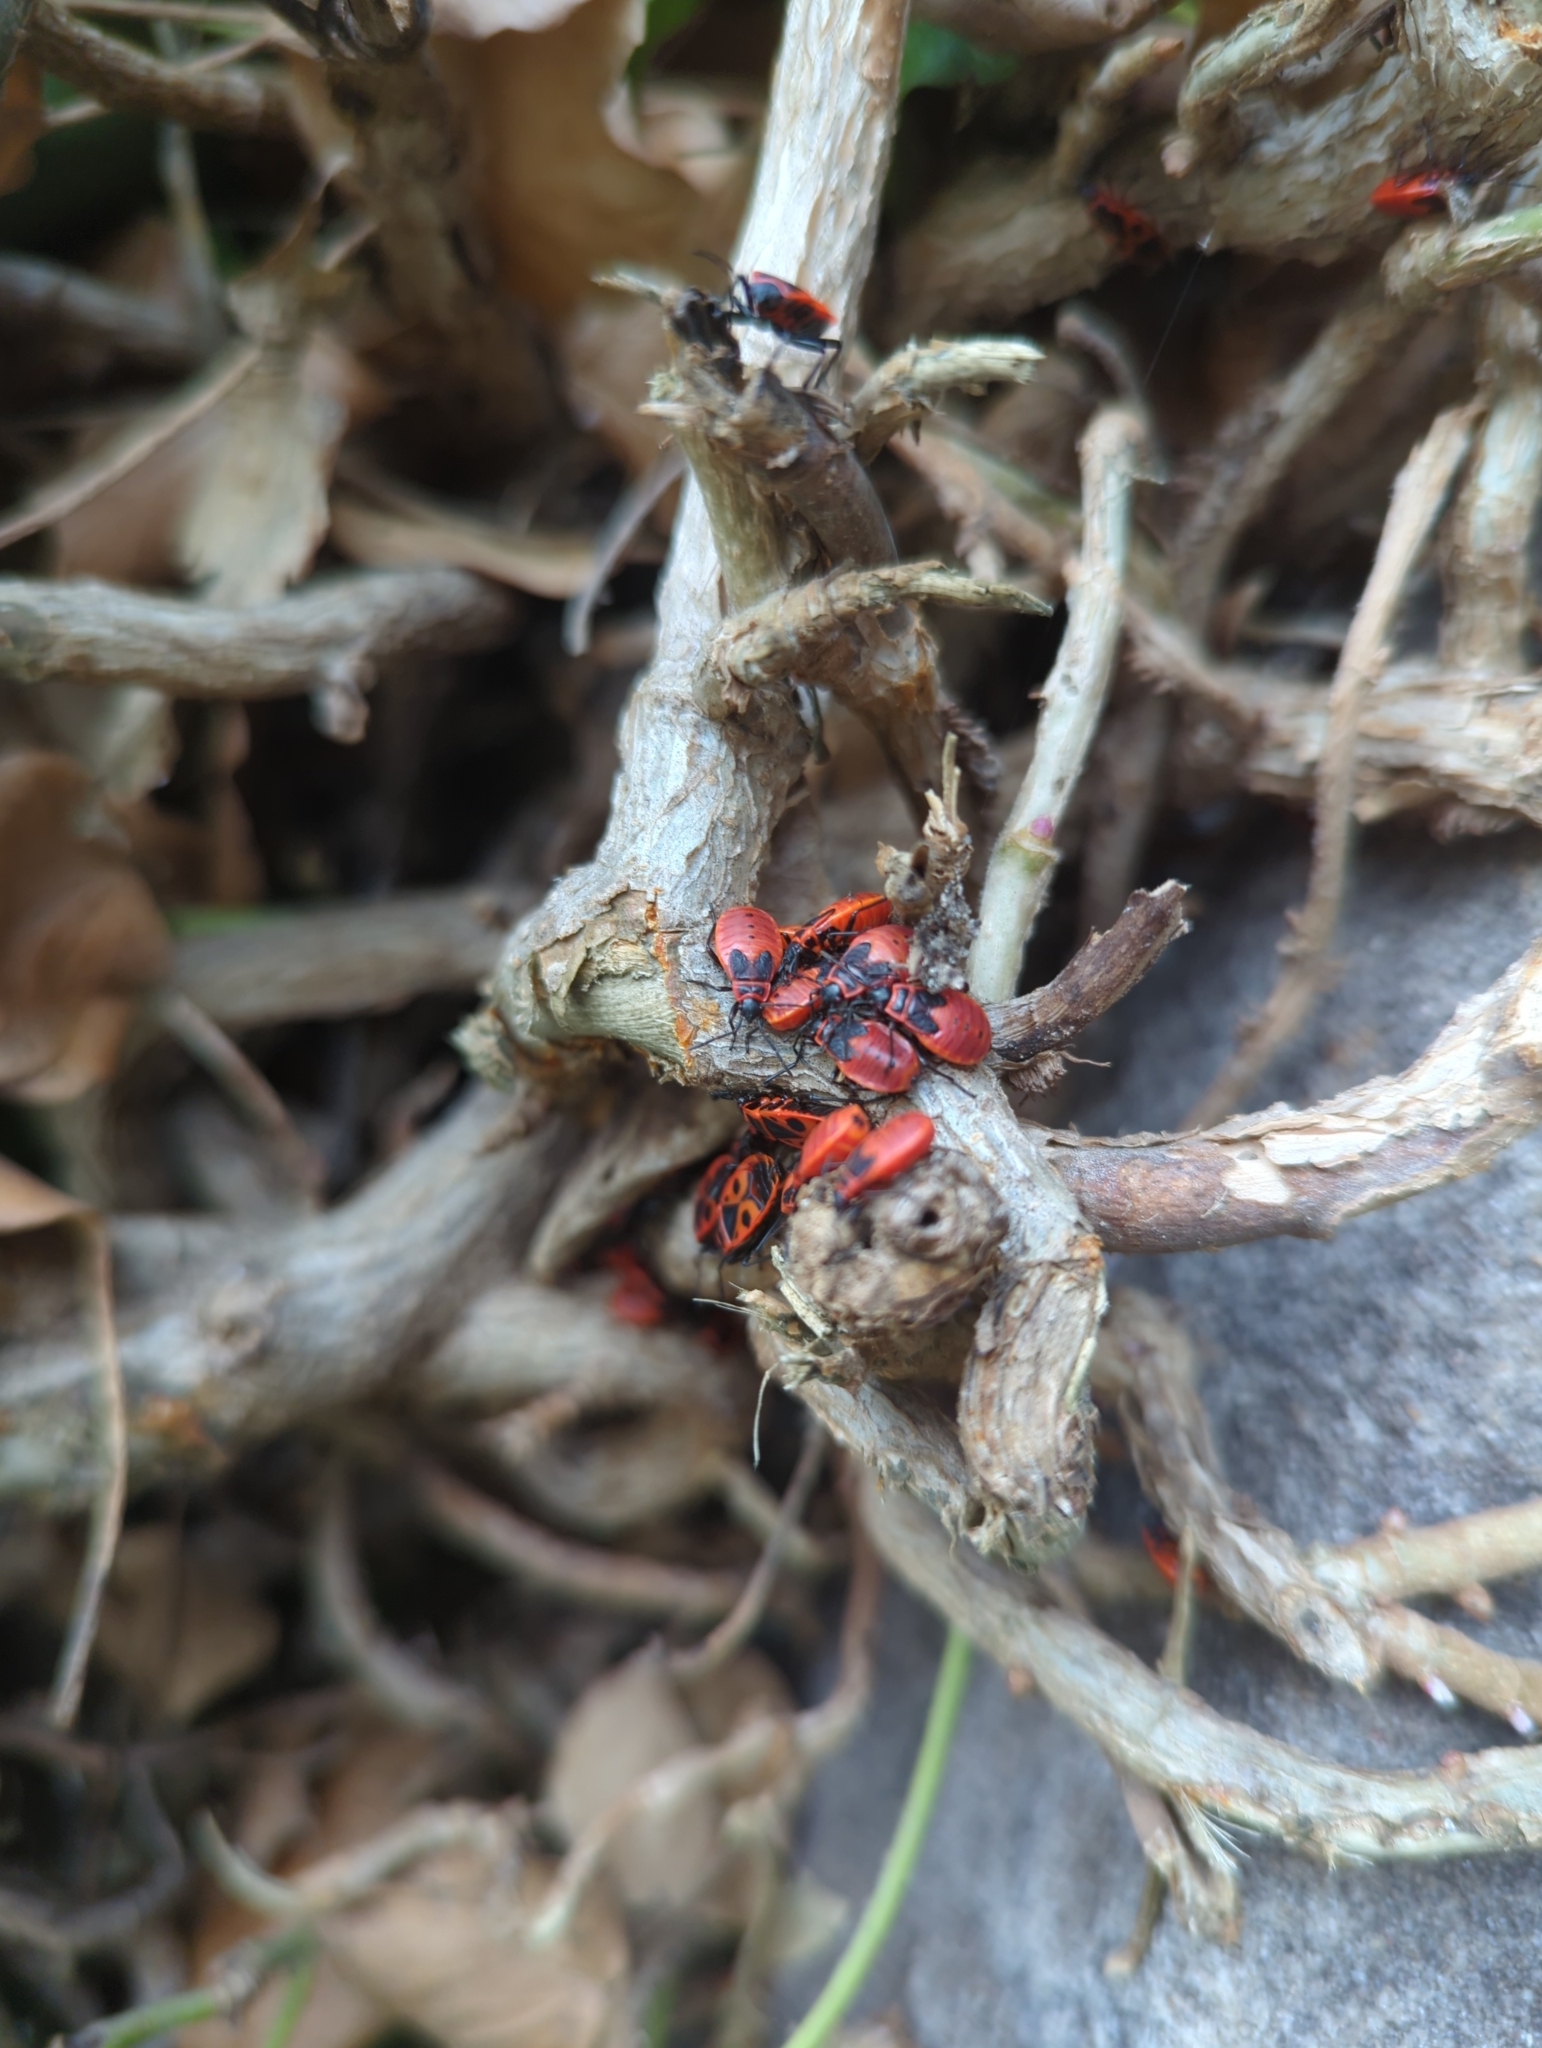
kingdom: Animalia
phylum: Arthropoda
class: Insecta
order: Hemiptera
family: Pyrrhocoridae
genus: Pyrrhocoris
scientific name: Pyrrhocoris apterus
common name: Firebug
